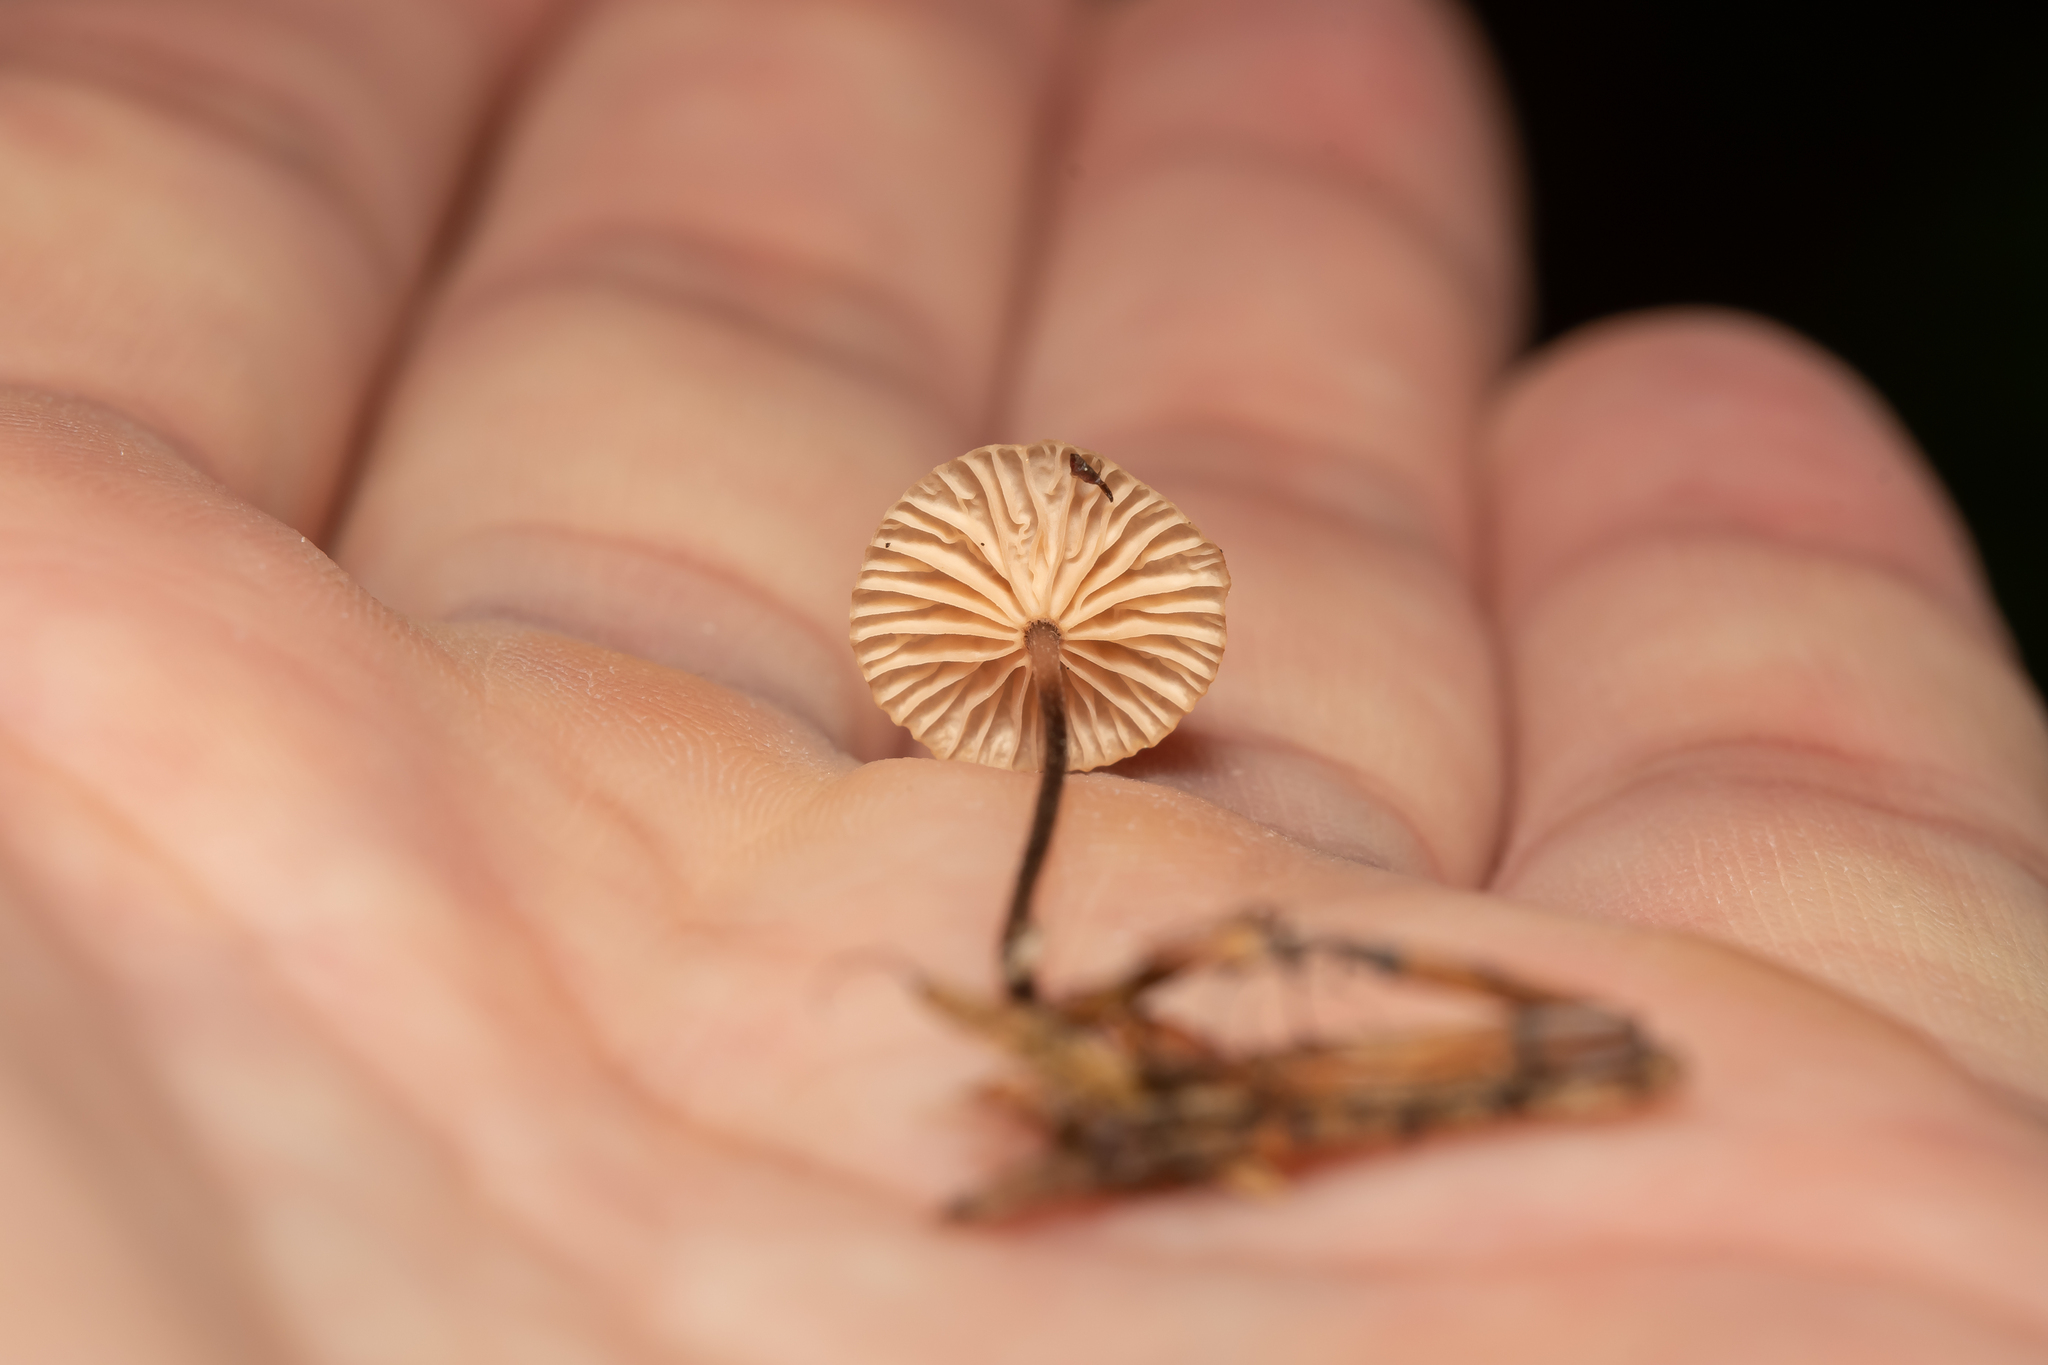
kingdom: Fungi
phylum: Basidiomycota
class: Agaricomycetes
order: Agaricales
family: Omphalotaceae
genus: Paragymnopus
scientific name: Paragymnopus perforans
